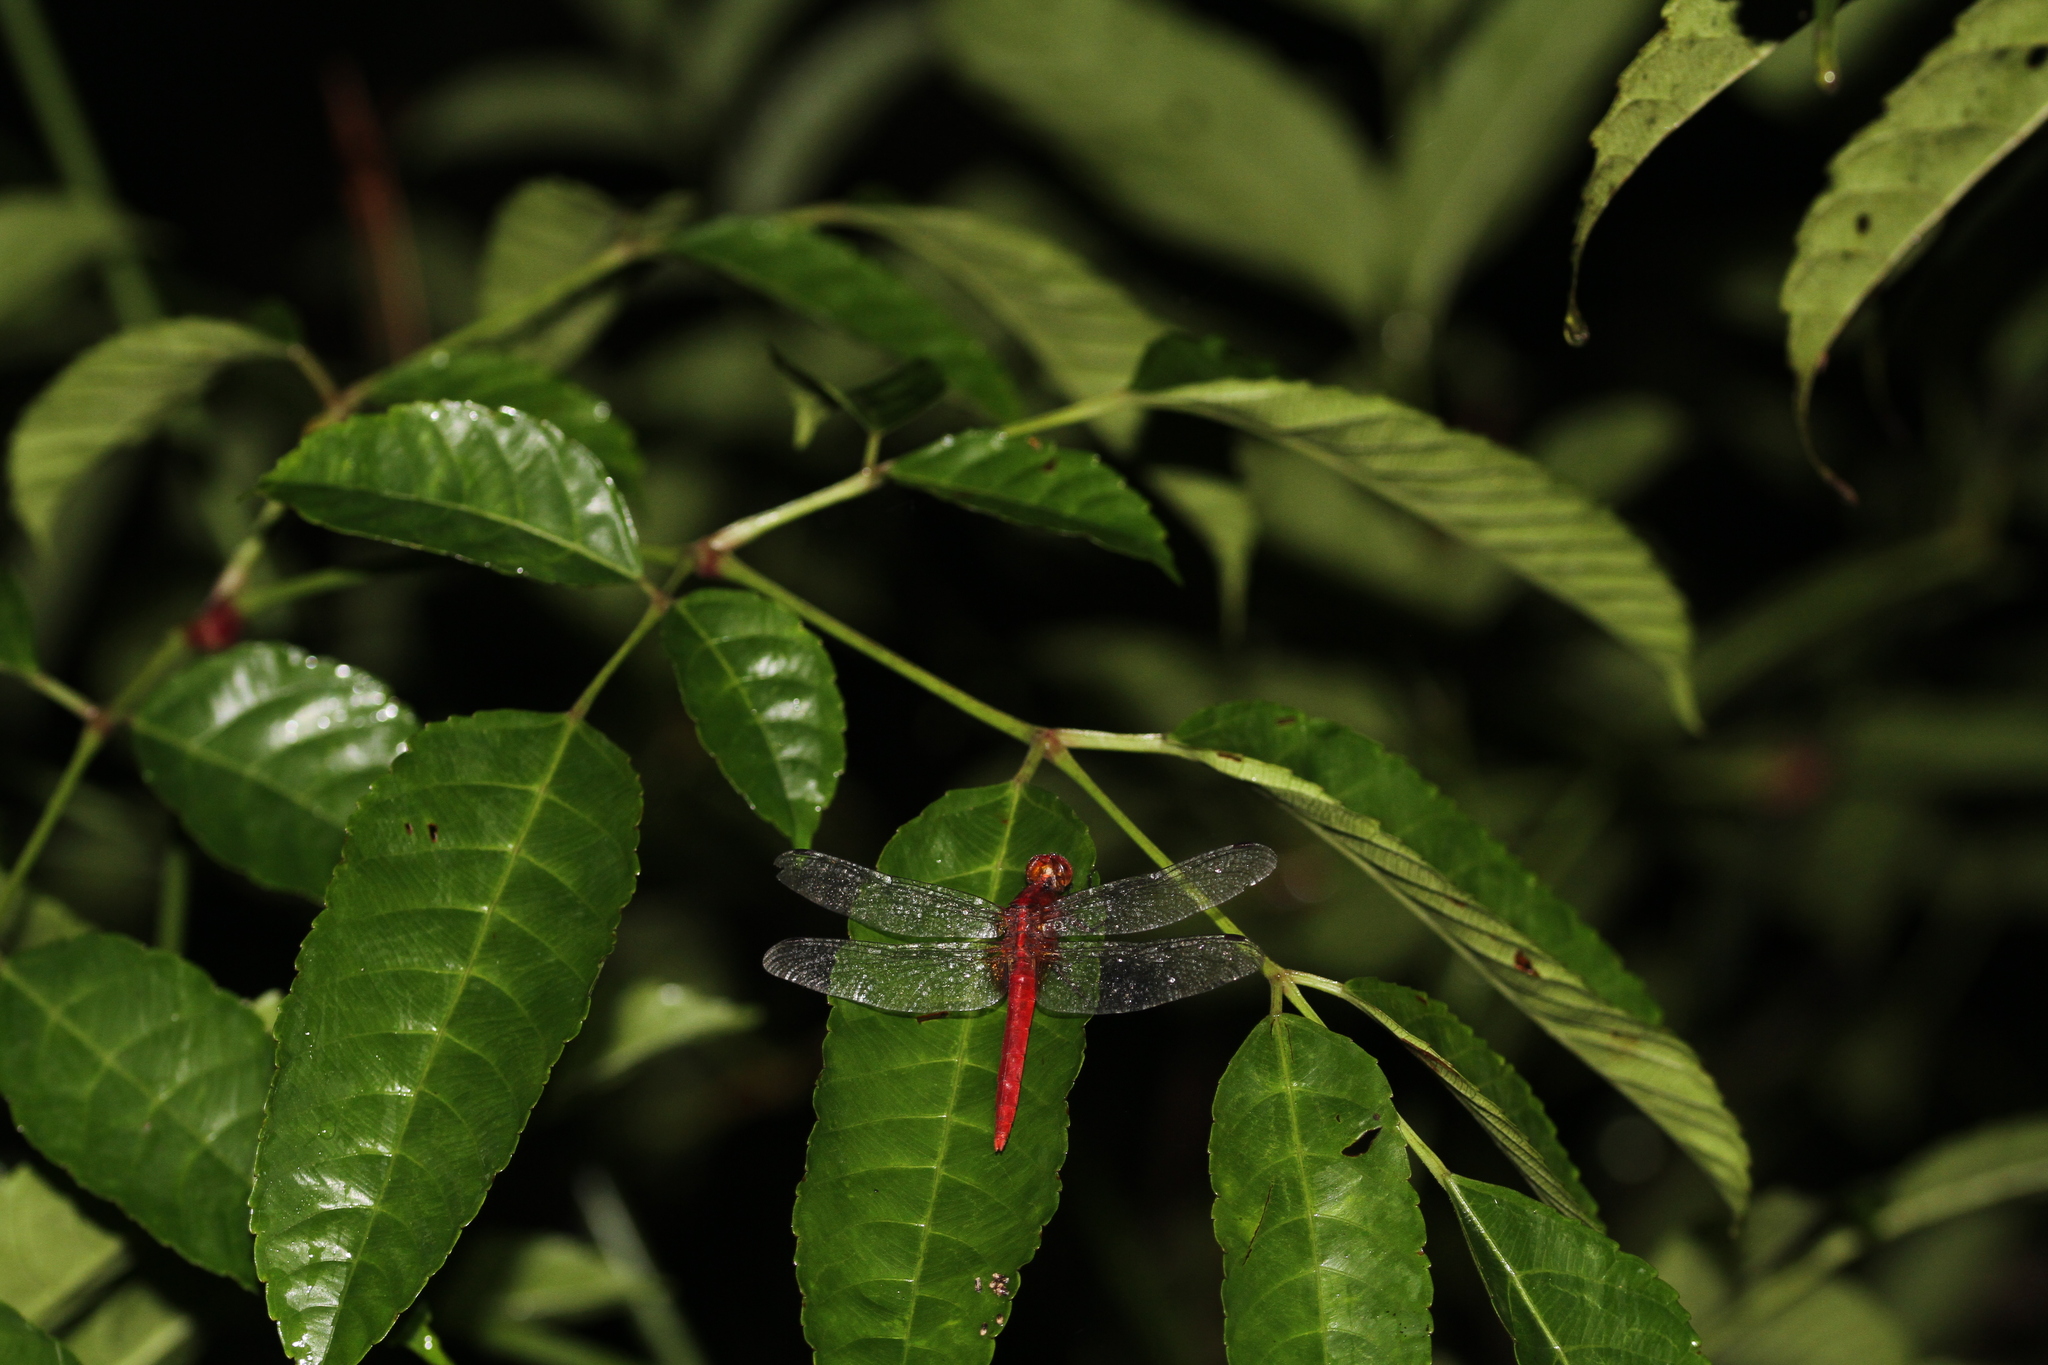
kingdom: Animalia
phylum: Arthropoda
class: Insecta
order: Odonata
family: Libellulidae
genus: Rhodothemis
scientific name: Rhodothemis rufa
